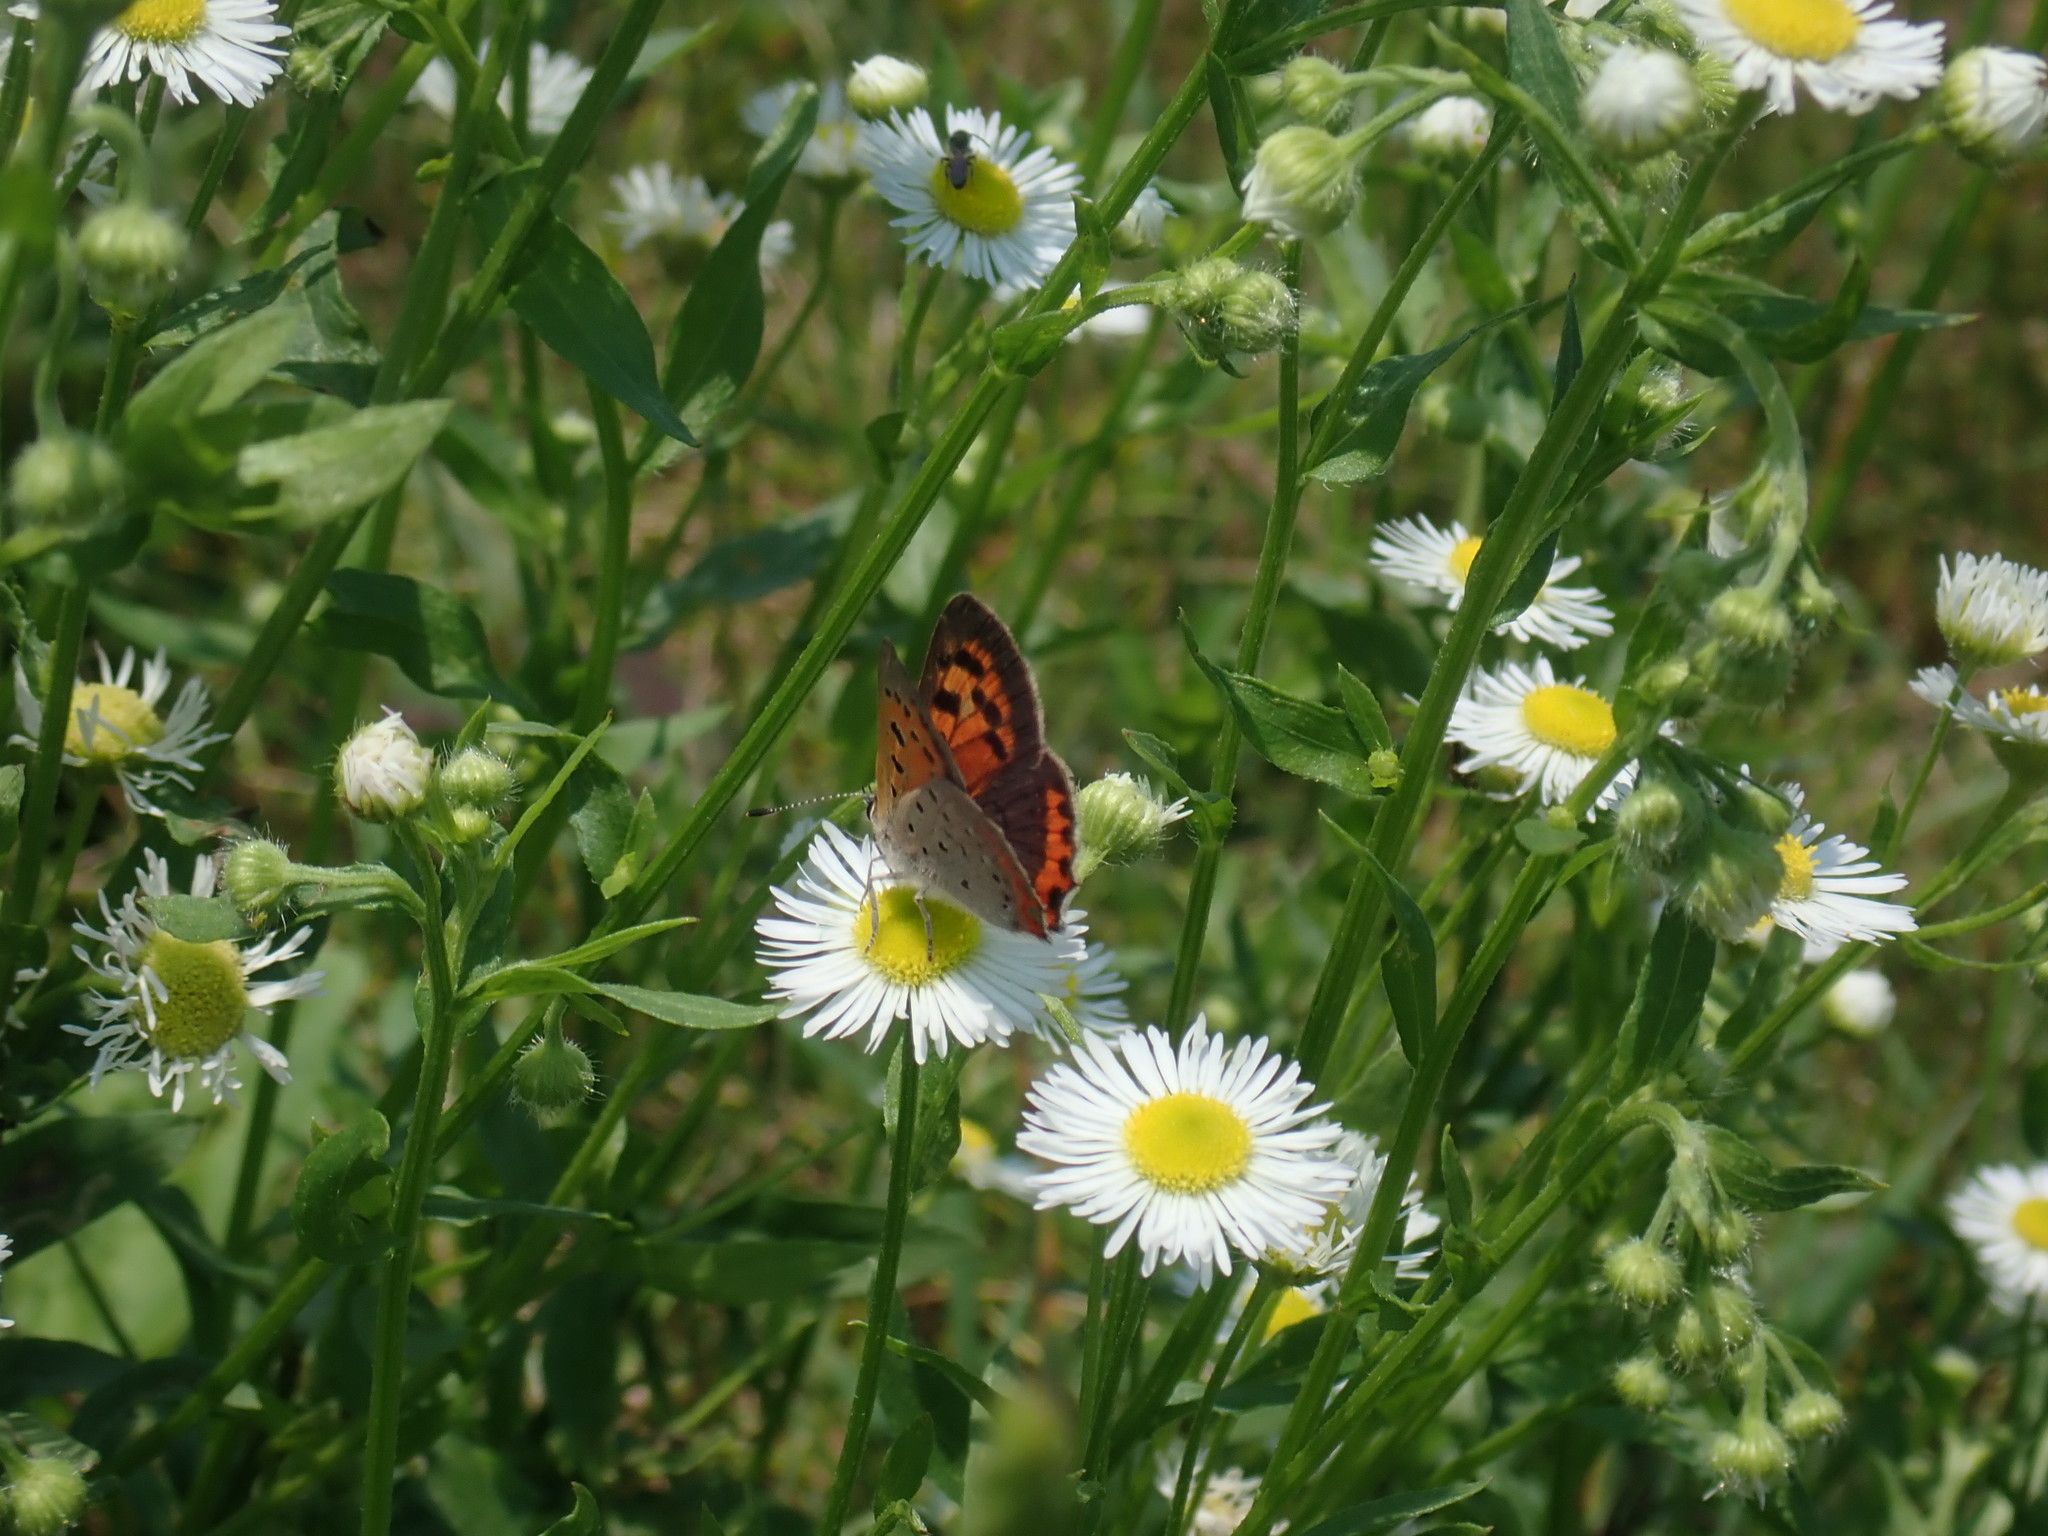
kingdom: Animalia
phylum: Arthropoda
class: Insecta
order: Lepidoptera
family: Lycaenidae
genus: Lycaena
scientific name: Lycaena hypophlaeas
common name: American copper
